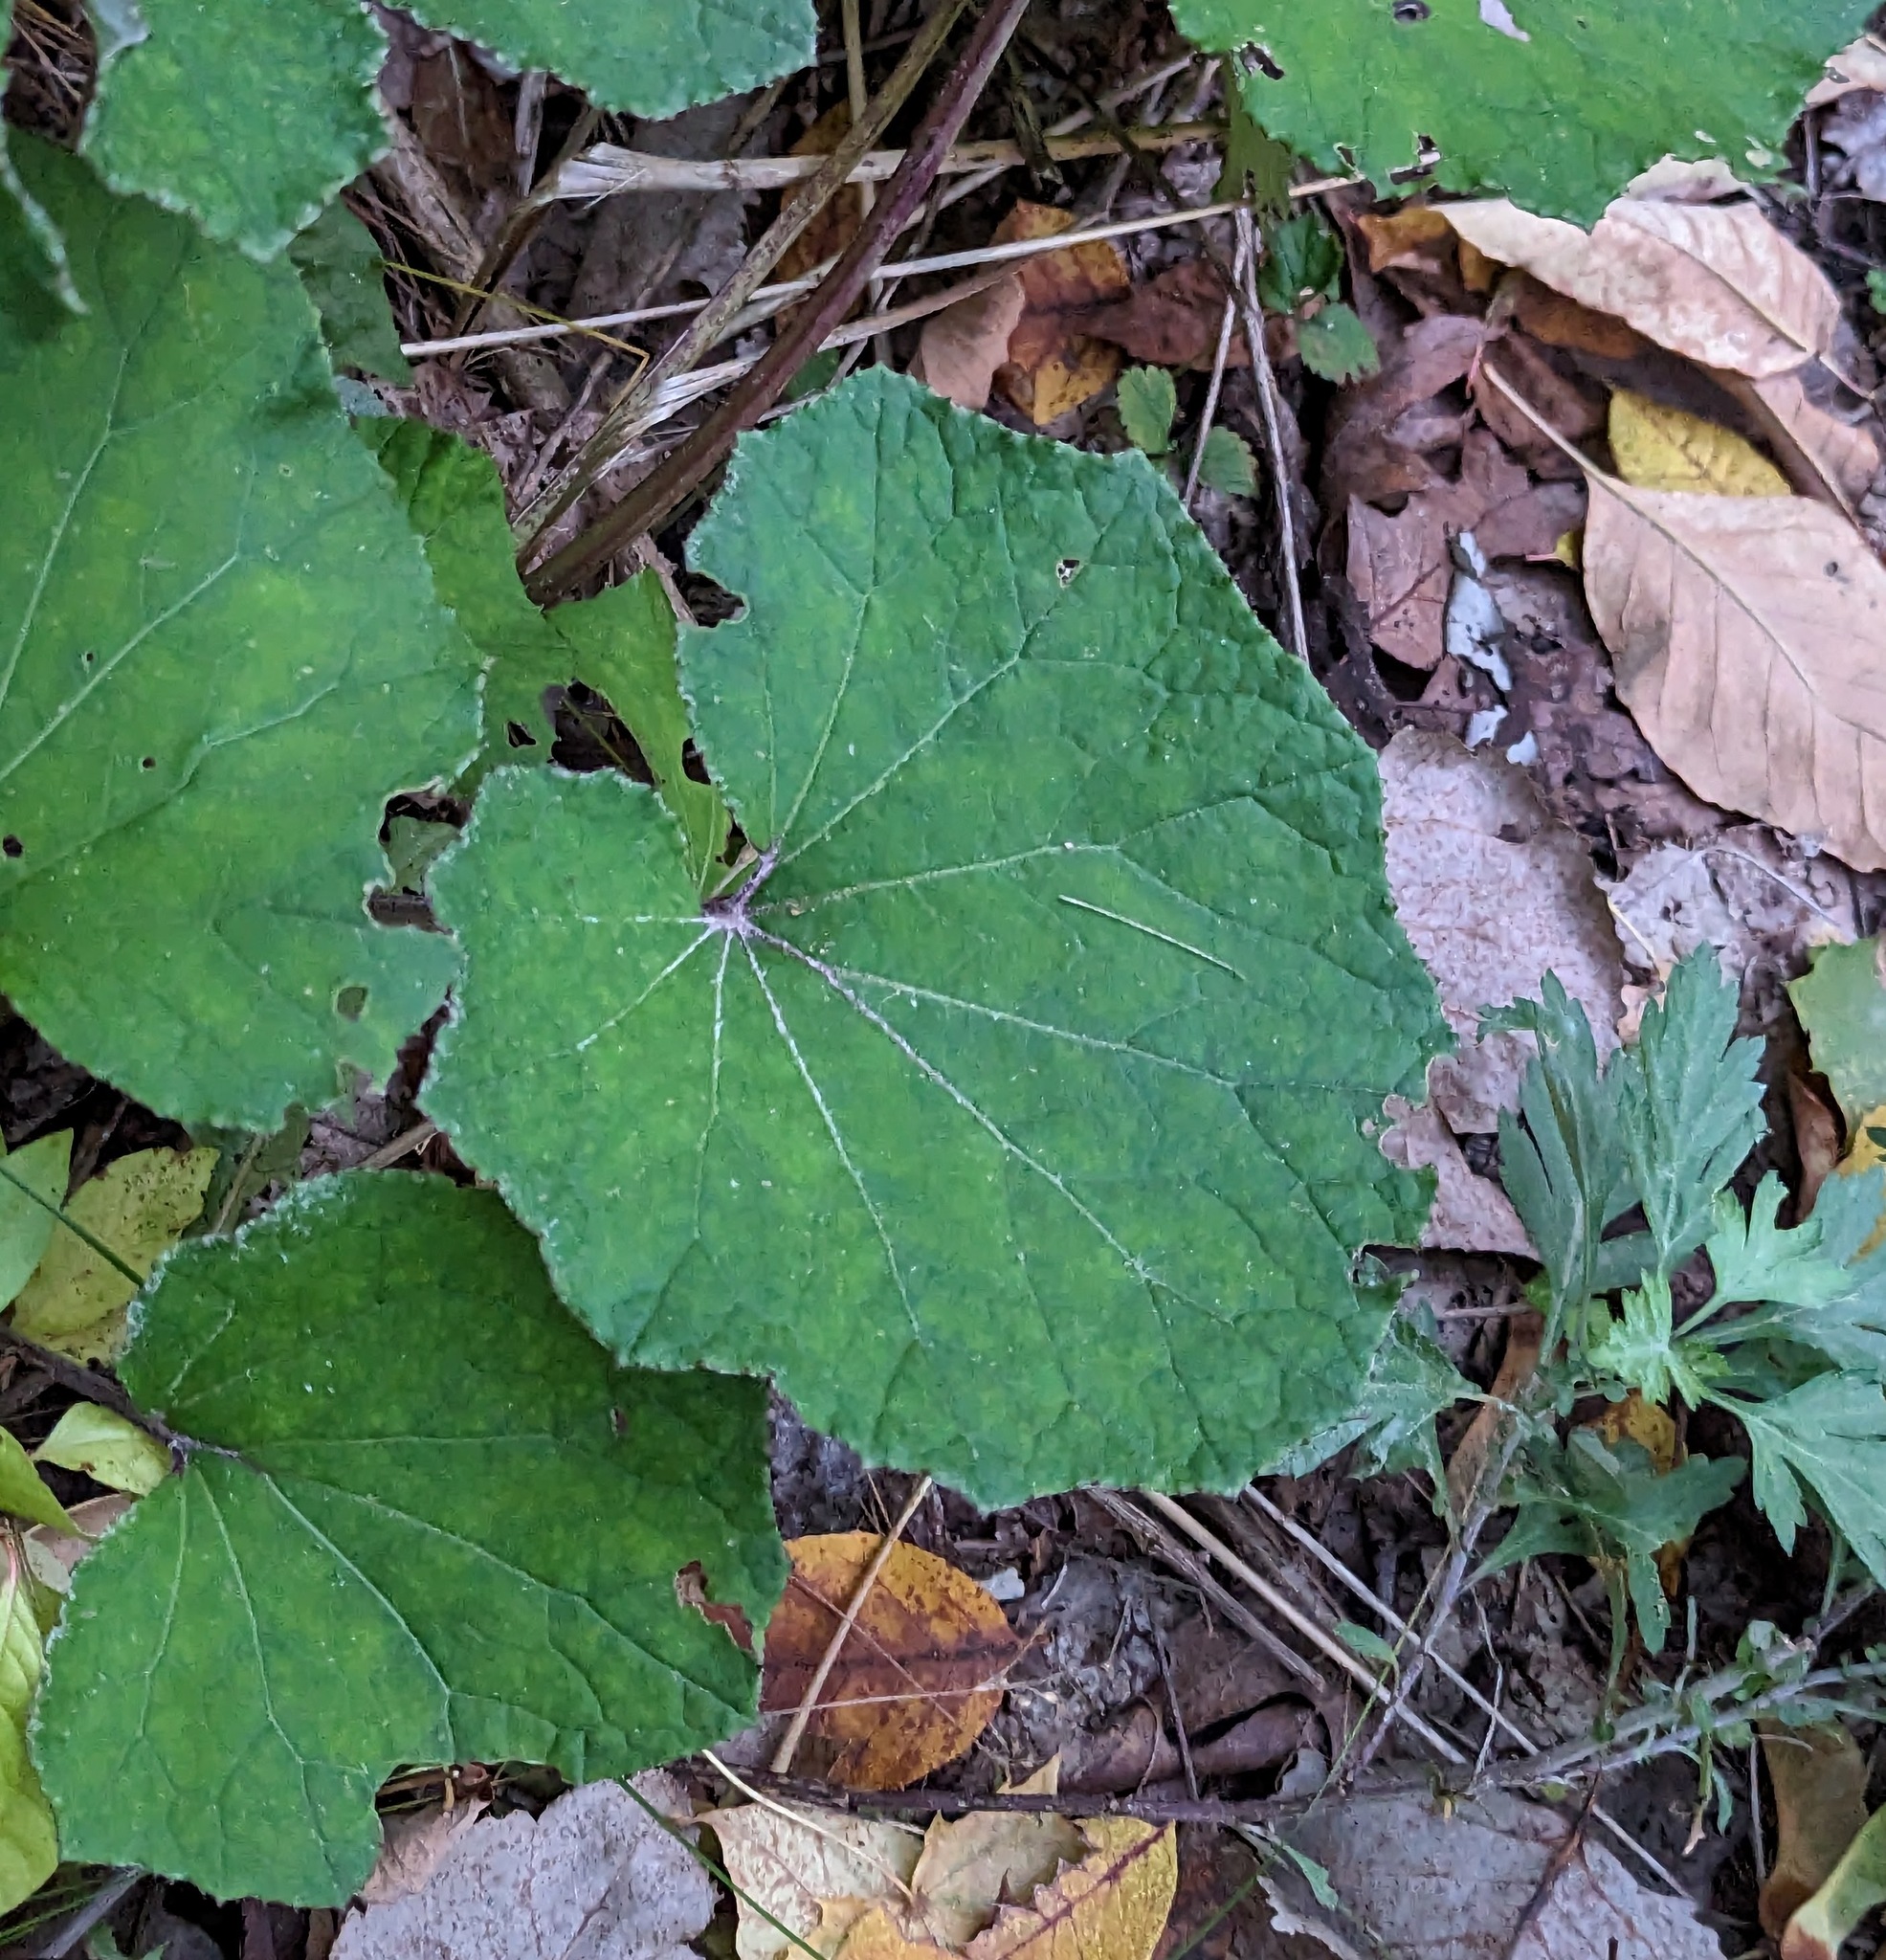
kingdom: Plantae
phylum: Tracheophyta
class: Magnoliopsida
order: Asterales
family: Asteraceae
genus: Tussilago
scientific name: Tussilago farfara
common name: Coltsfoot
